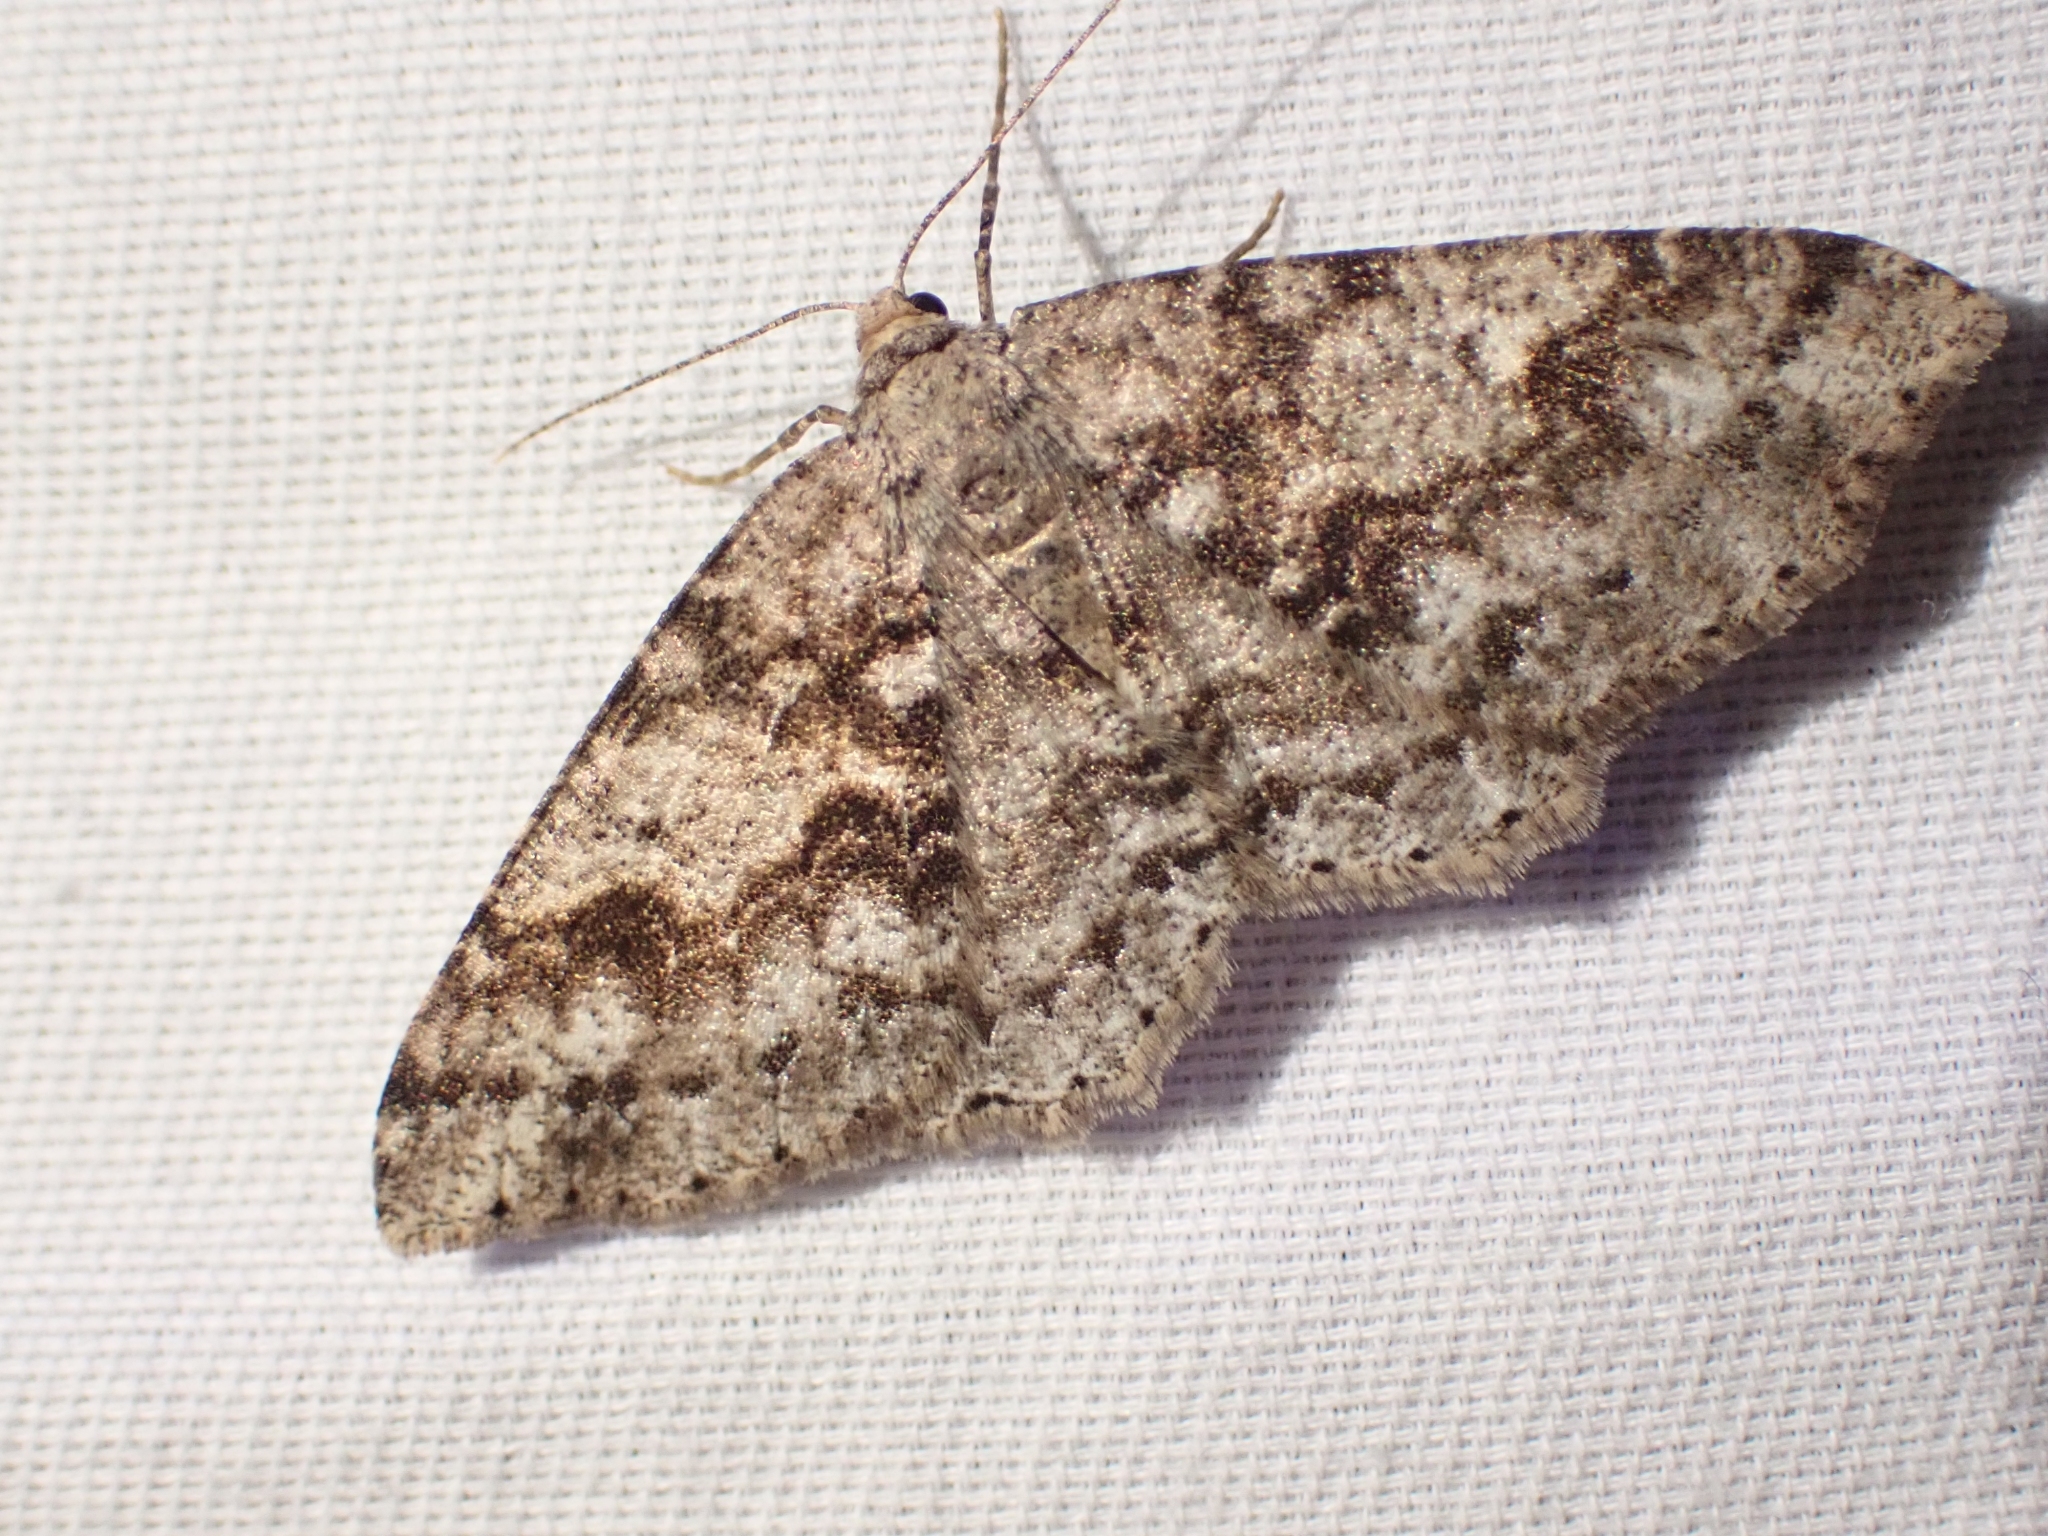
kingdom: Animalia
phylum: Arthropoda
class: Insecta
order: Lepidoptera
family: Geometridae
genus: Melanolophia
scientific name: Melanolophia imitata
